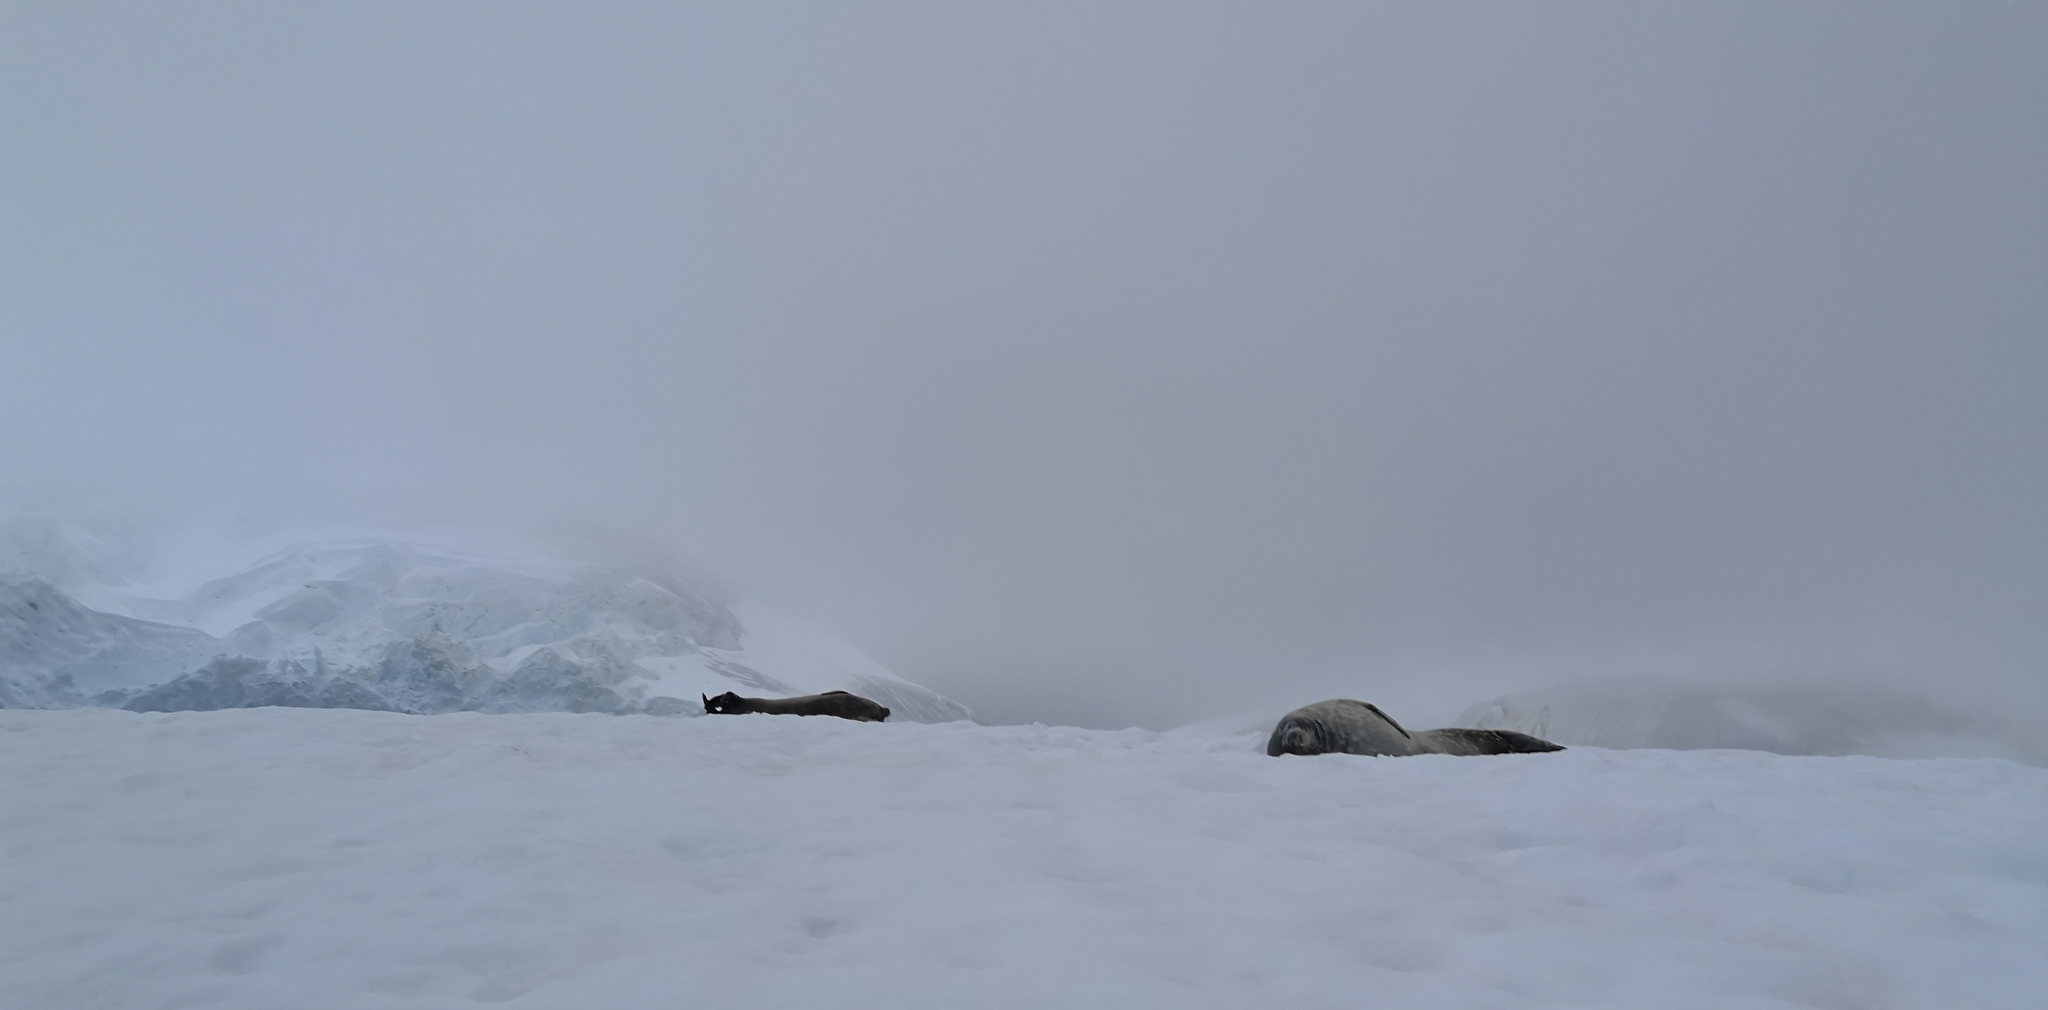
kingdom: Animalia
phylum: Chordata
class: Mammalia
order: Carnivora
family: Phocidae
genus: Leptonychotes
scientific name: Leptonychotes weddellii
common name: Weddell seal
